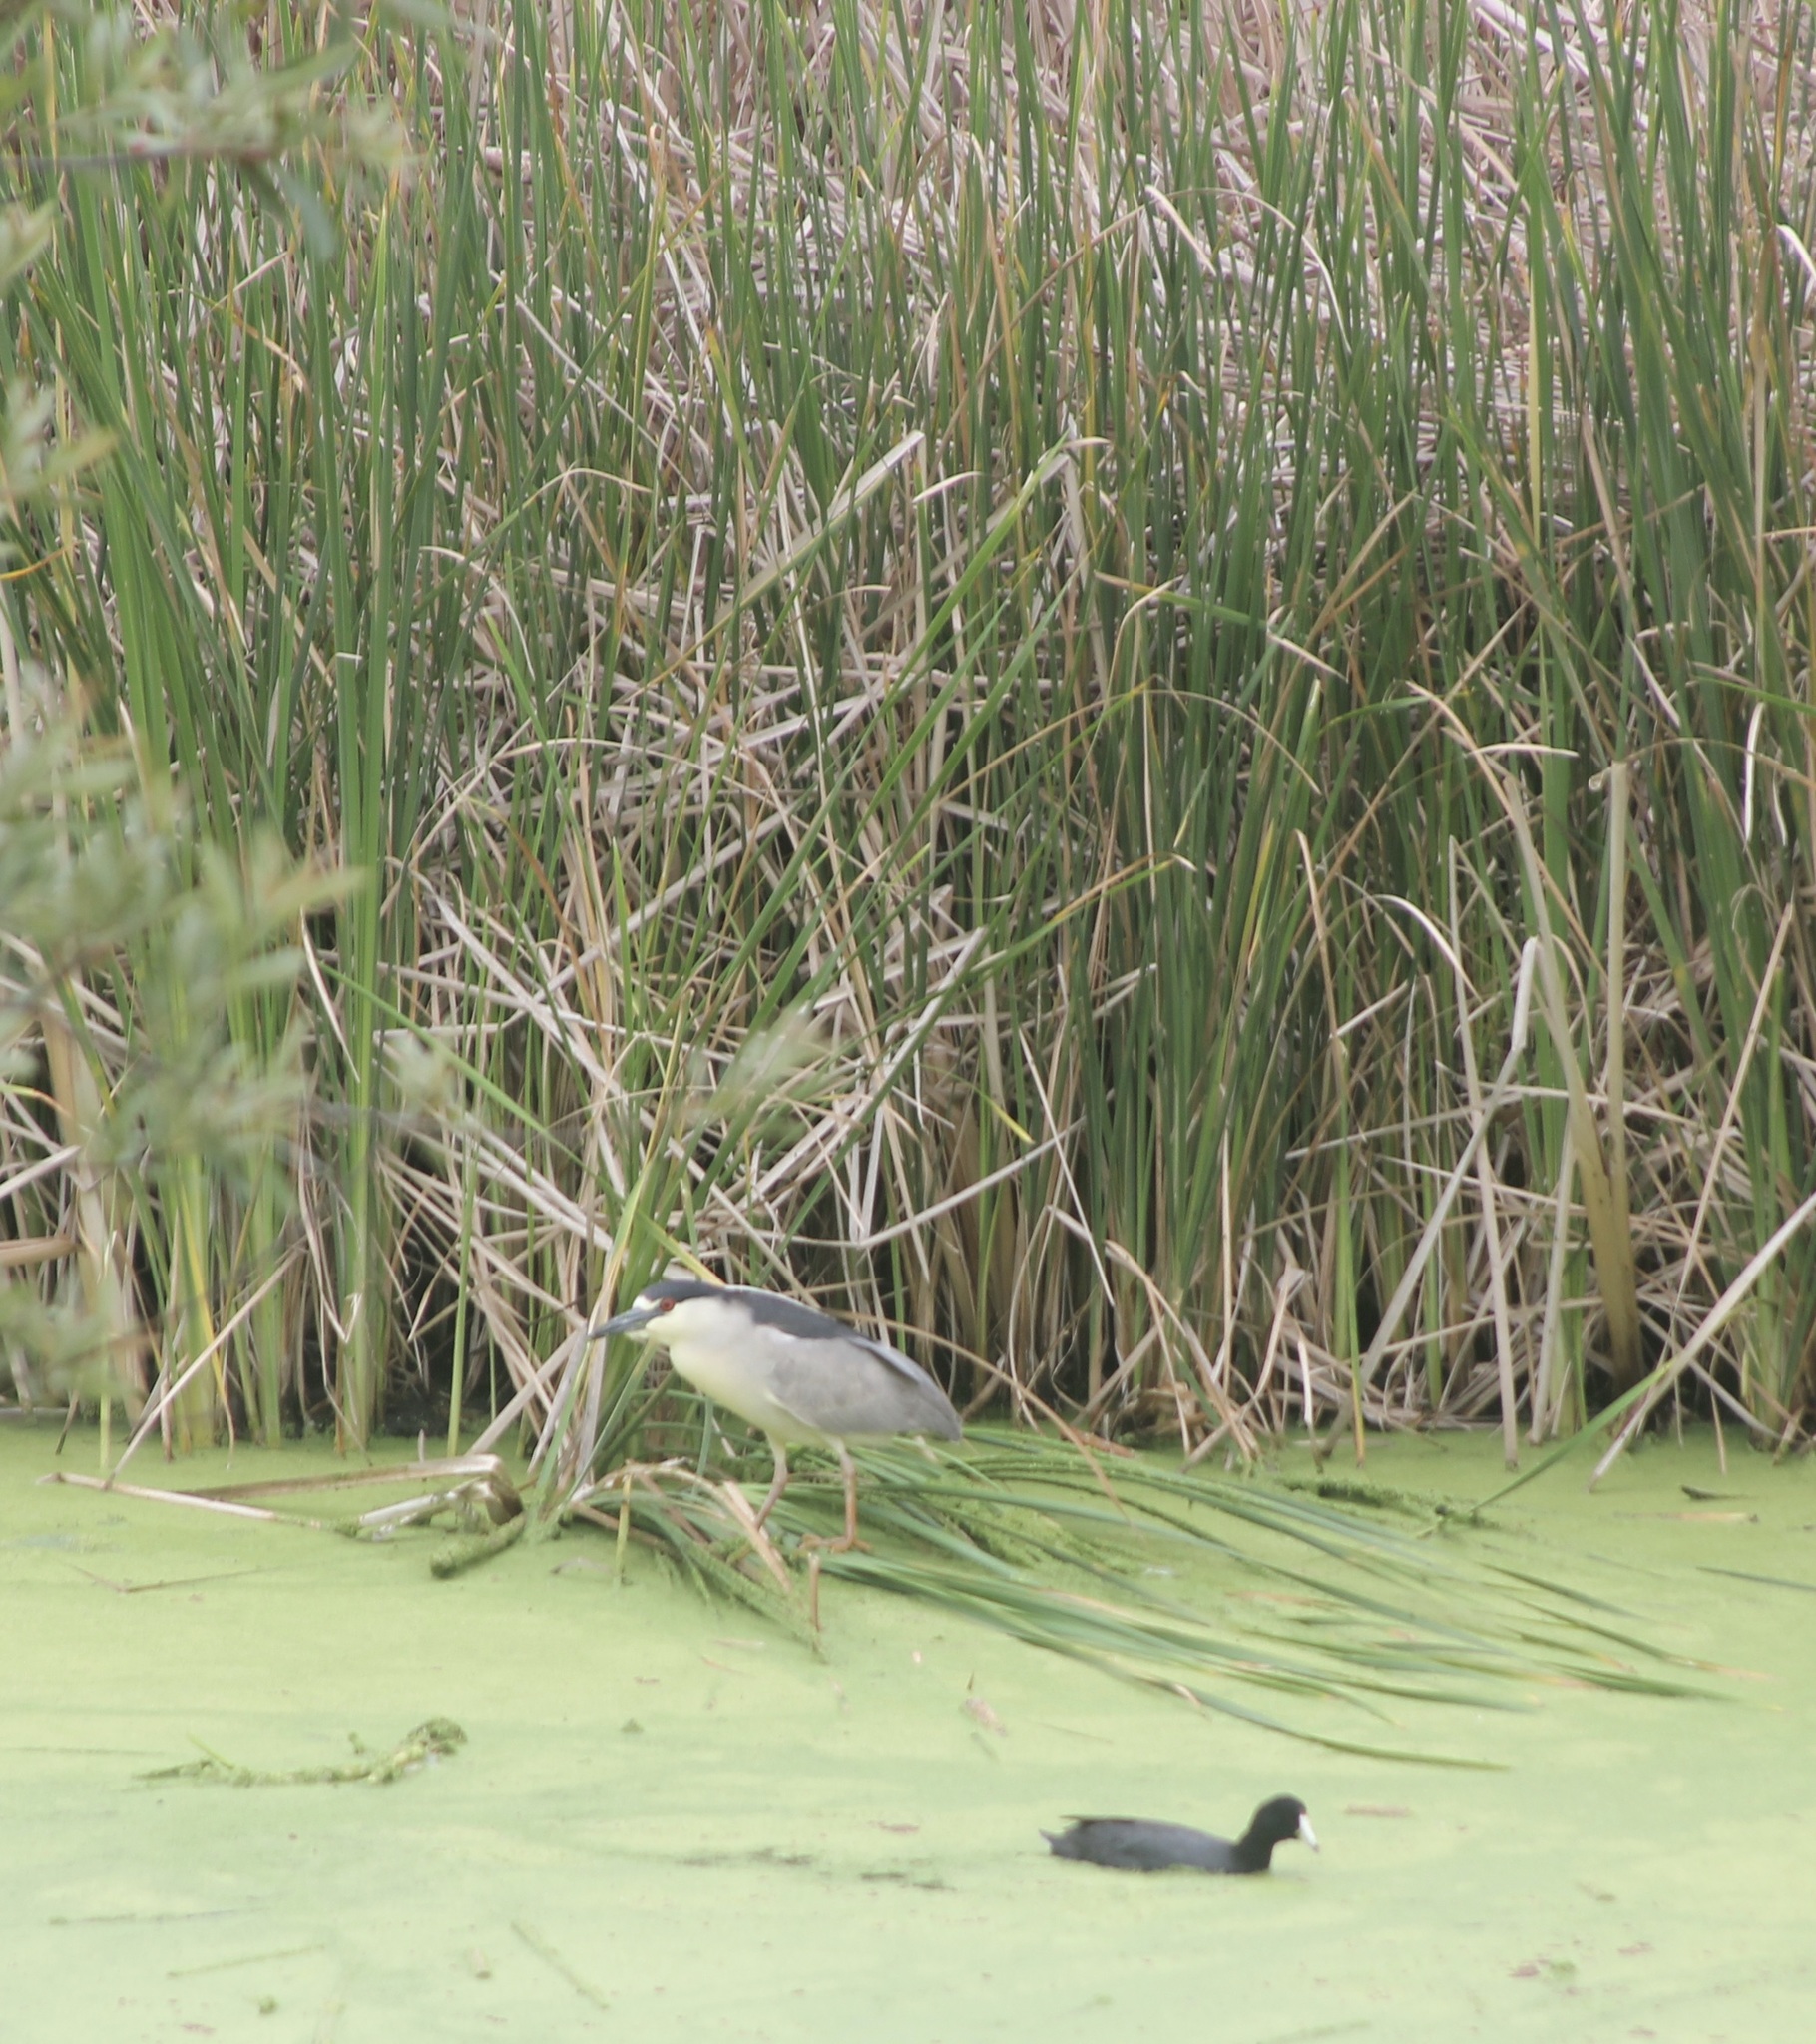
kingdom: Animalia
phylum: Chordata
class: Aves
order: Gruiformes
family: Rallidae
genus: Fulica
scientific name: Fulica americana
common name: American coot
